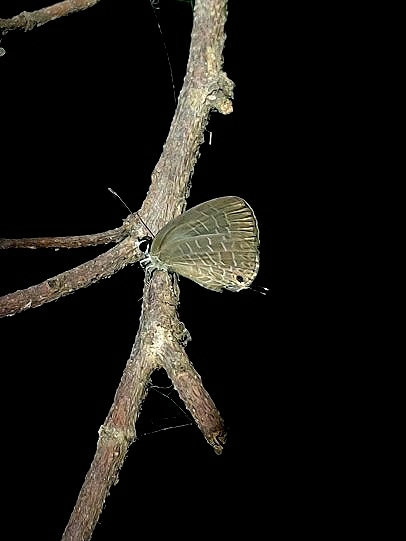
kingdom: Animalia
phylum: Arthropoda
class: Insecta
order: Lepidoptera
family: Lycaenidae
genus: Jamides
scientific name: Jamides bochus
